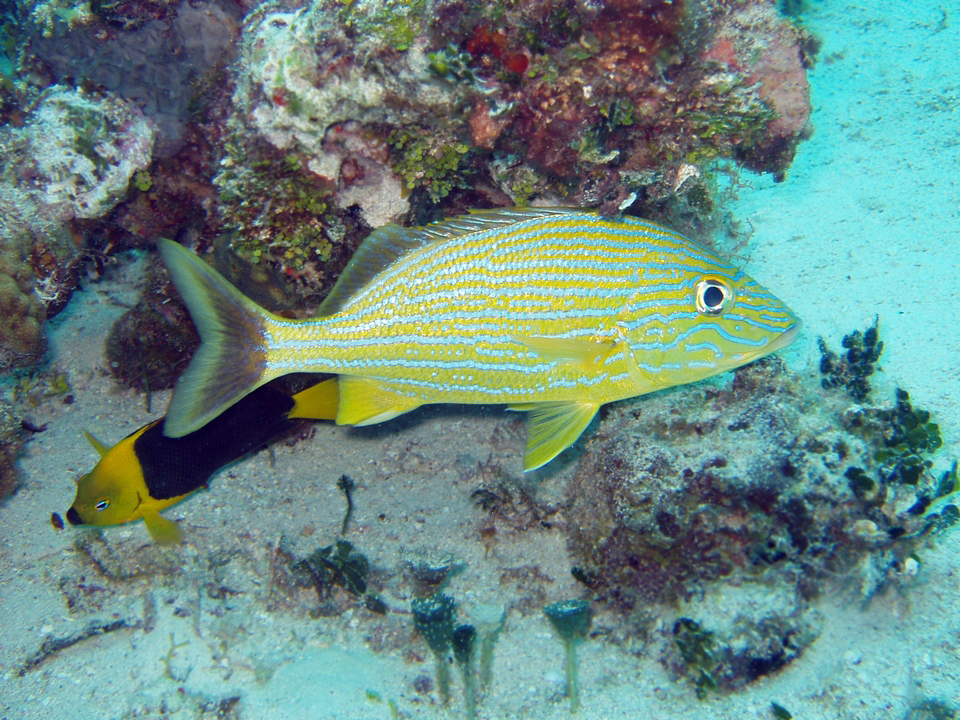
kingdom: Animalia
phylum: Chordata
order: Perciformes
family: Haemulidae
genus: Haemulon
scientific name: Haemulon sciurus
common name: Bluestriped grunt
